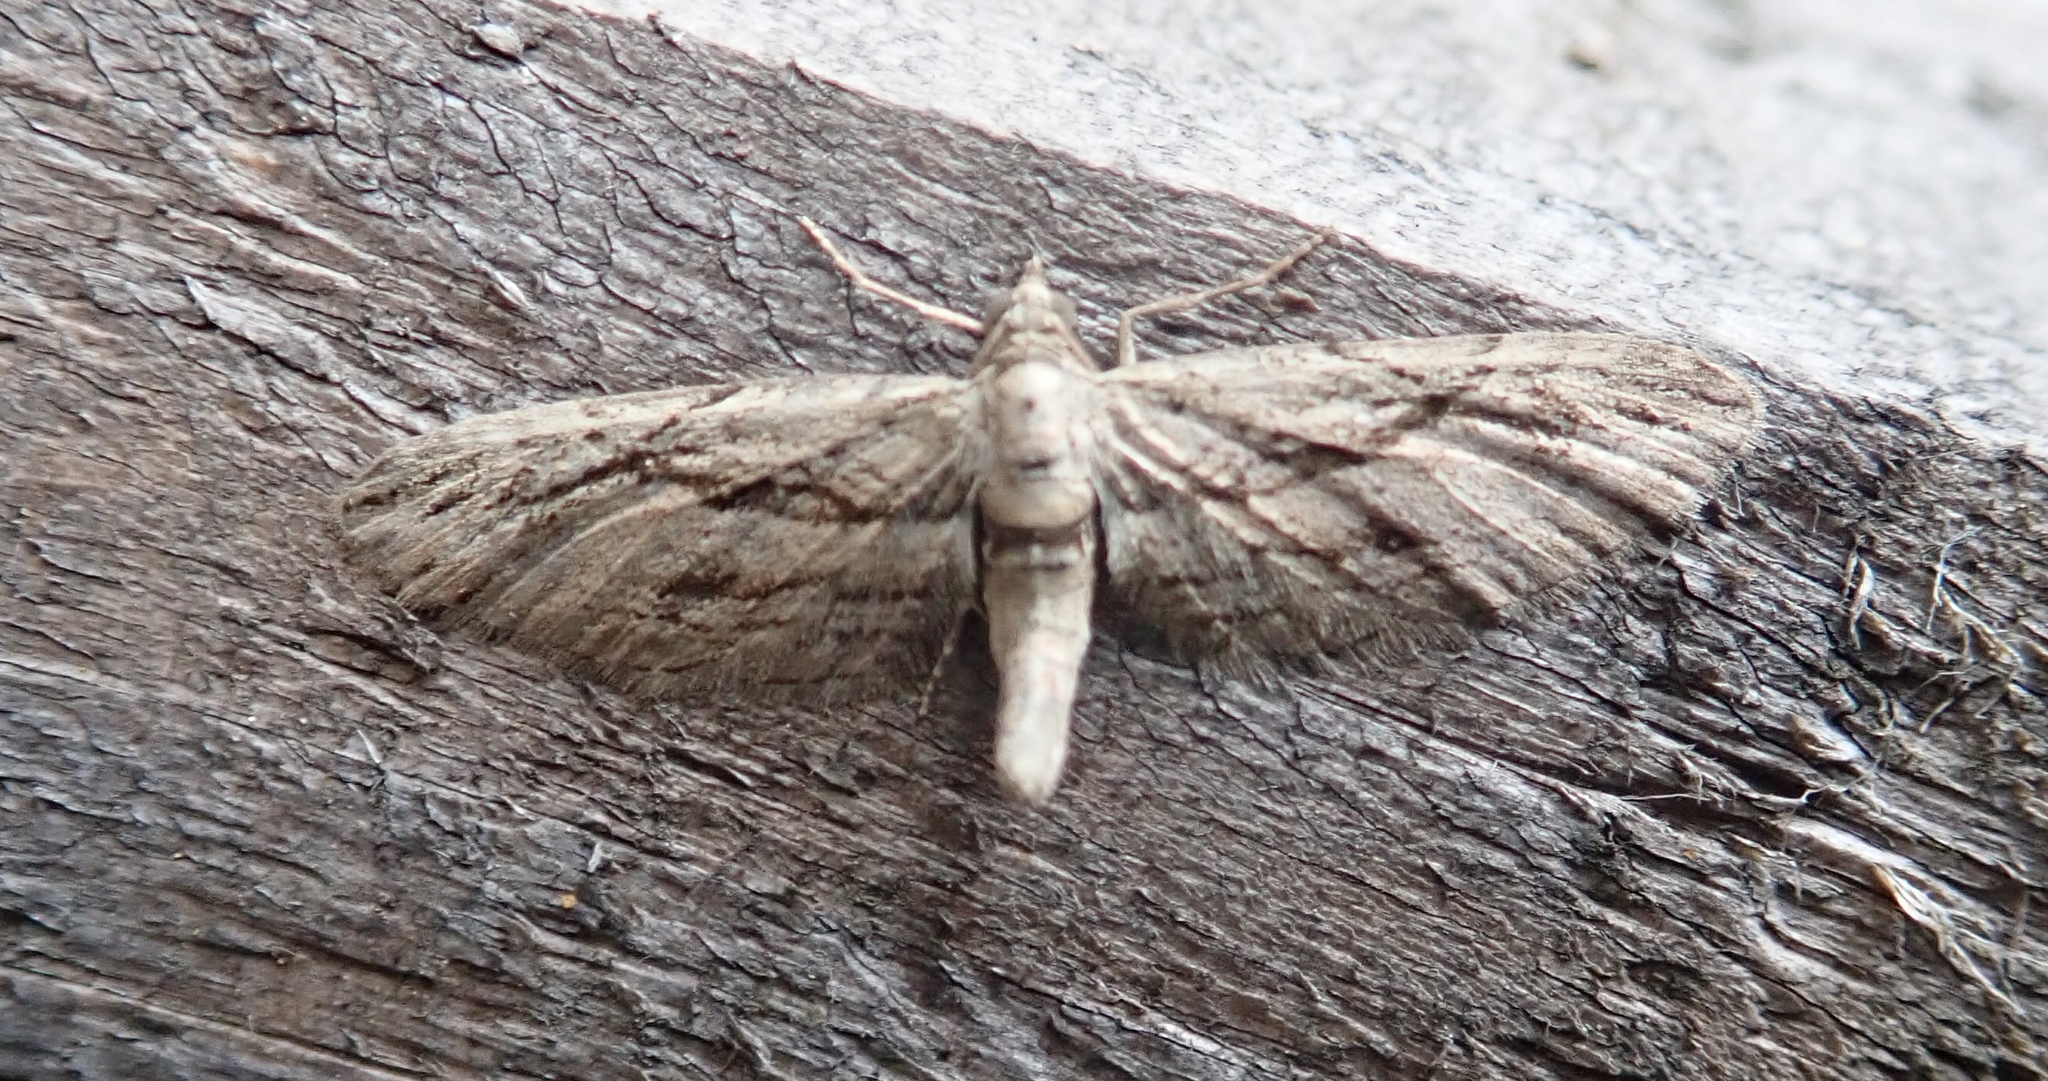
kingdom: Animalia
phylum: Arthropoda
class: Insecta
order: Lepidoptera
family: Geometridae
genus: Eupithecia
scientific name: Eupithecia phoeniceata
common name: Cypress pug
